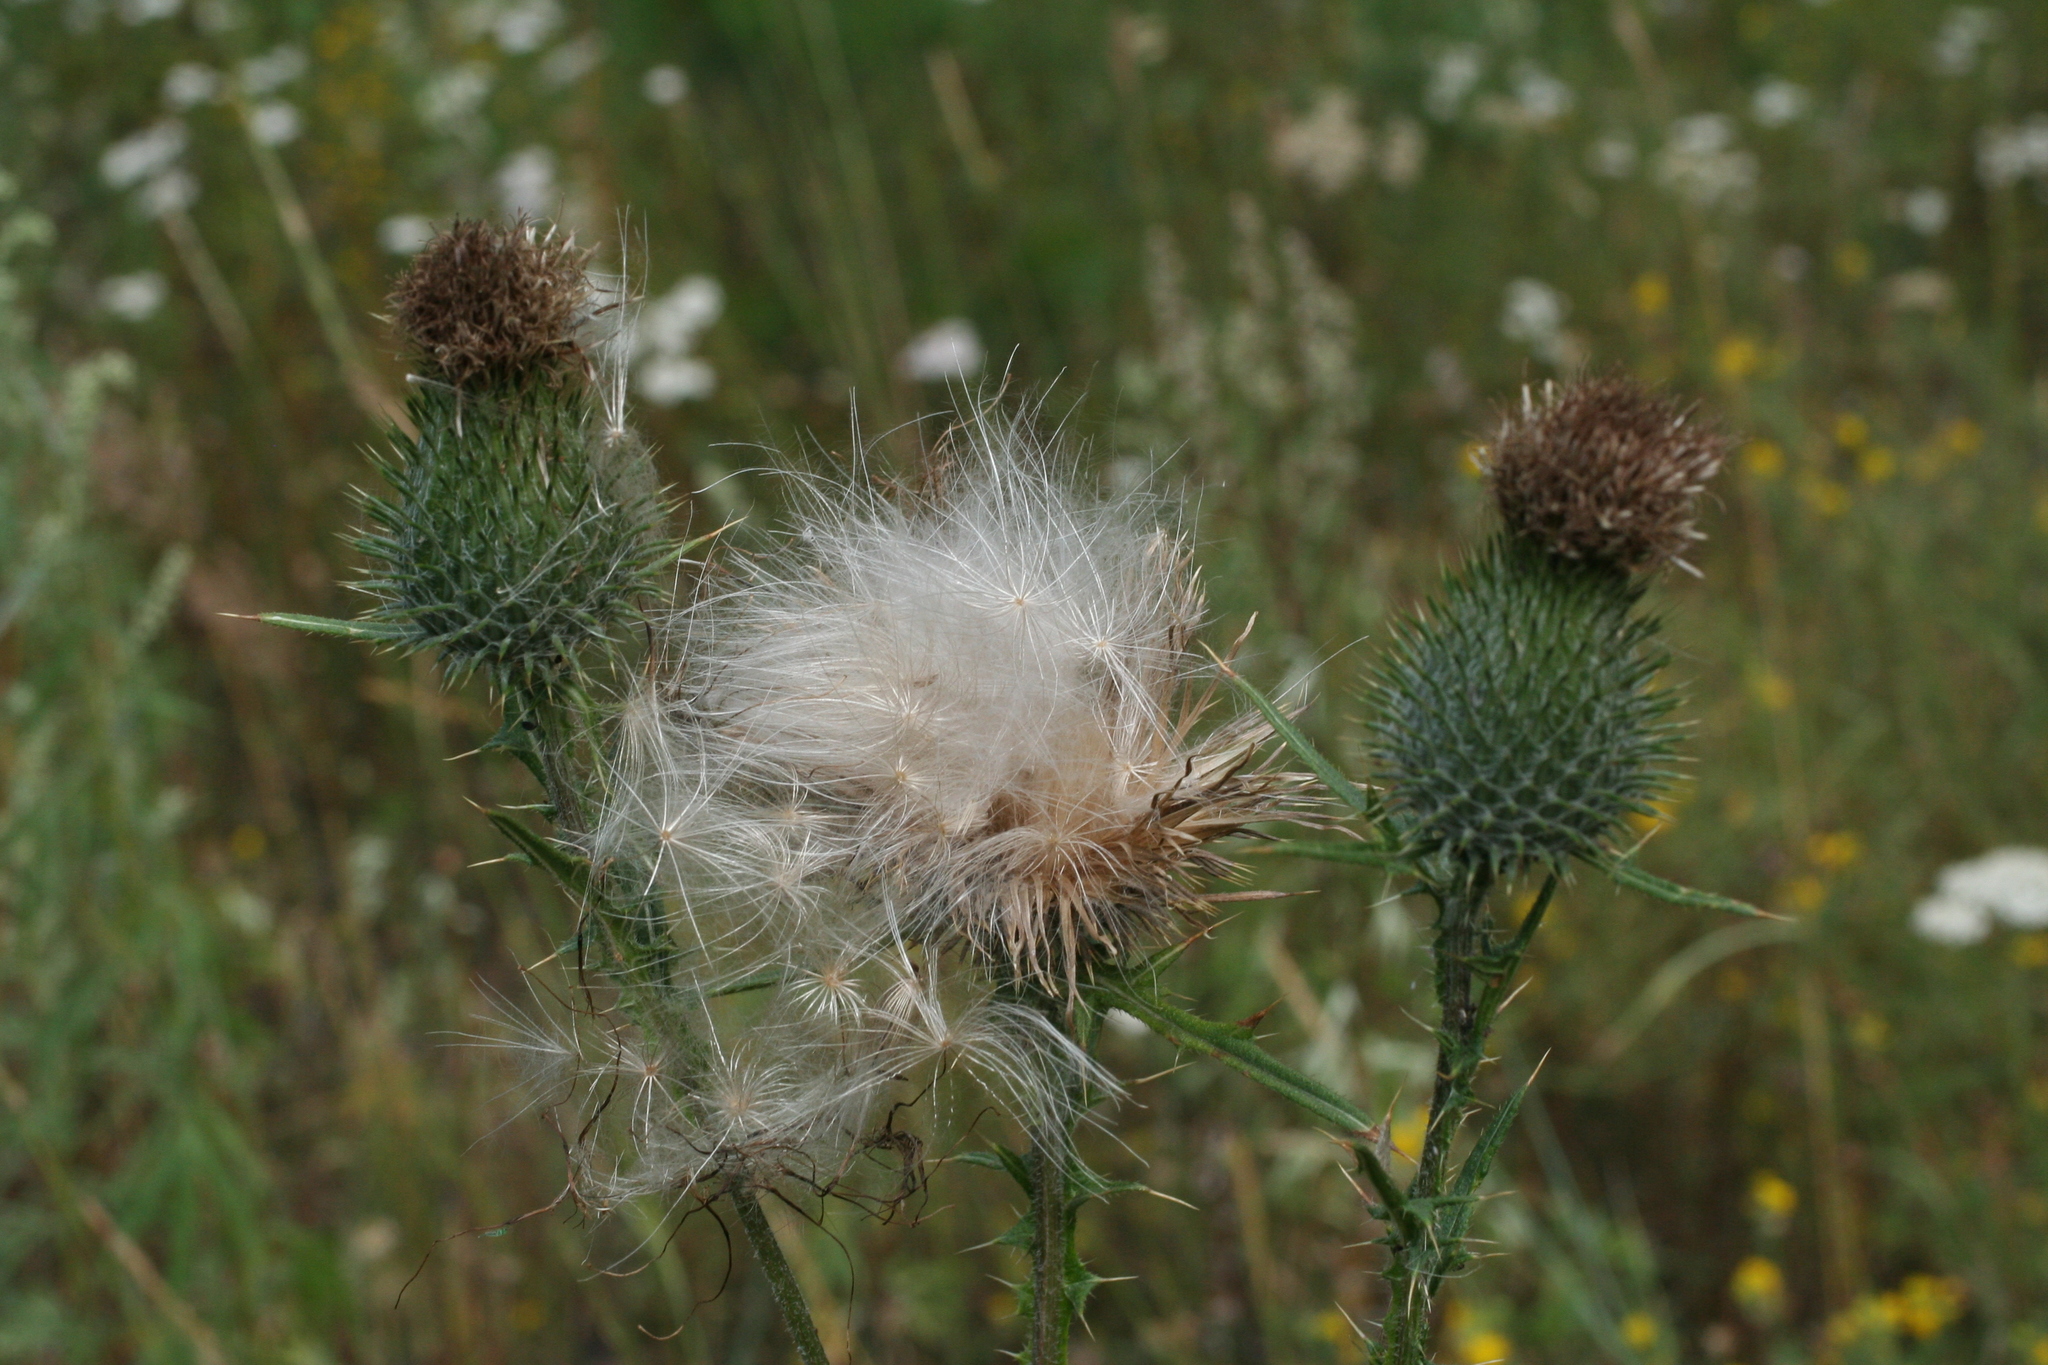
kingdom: Plantae
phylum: Tracheophyta
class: Magnoliopsida
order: Asterales
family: Asteraceae
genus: Cirsium
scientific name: Cirsium vulgare
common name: Bull thistle
